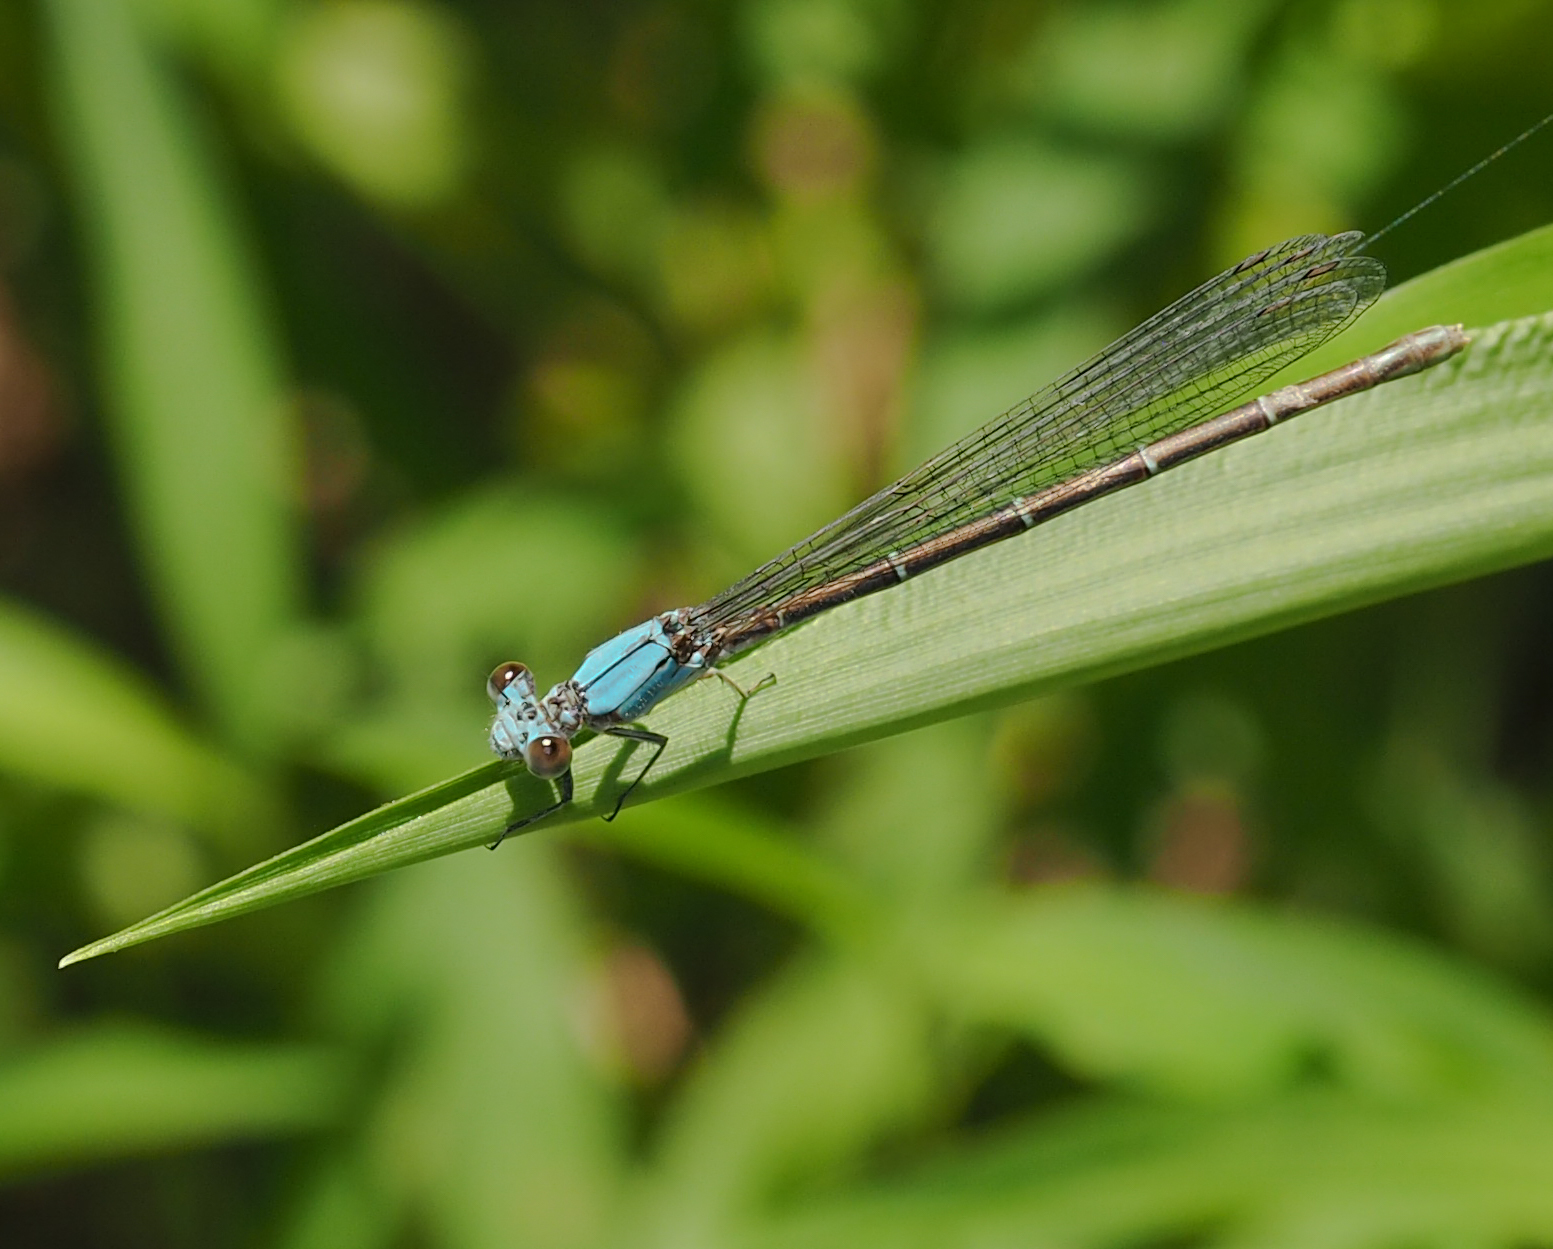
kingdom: Animalia
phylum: Arthropoda
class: Insecta
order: Odonata
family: Coenagrionidae
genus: Argia
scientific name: Argia moesta
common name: Powdered dancer
